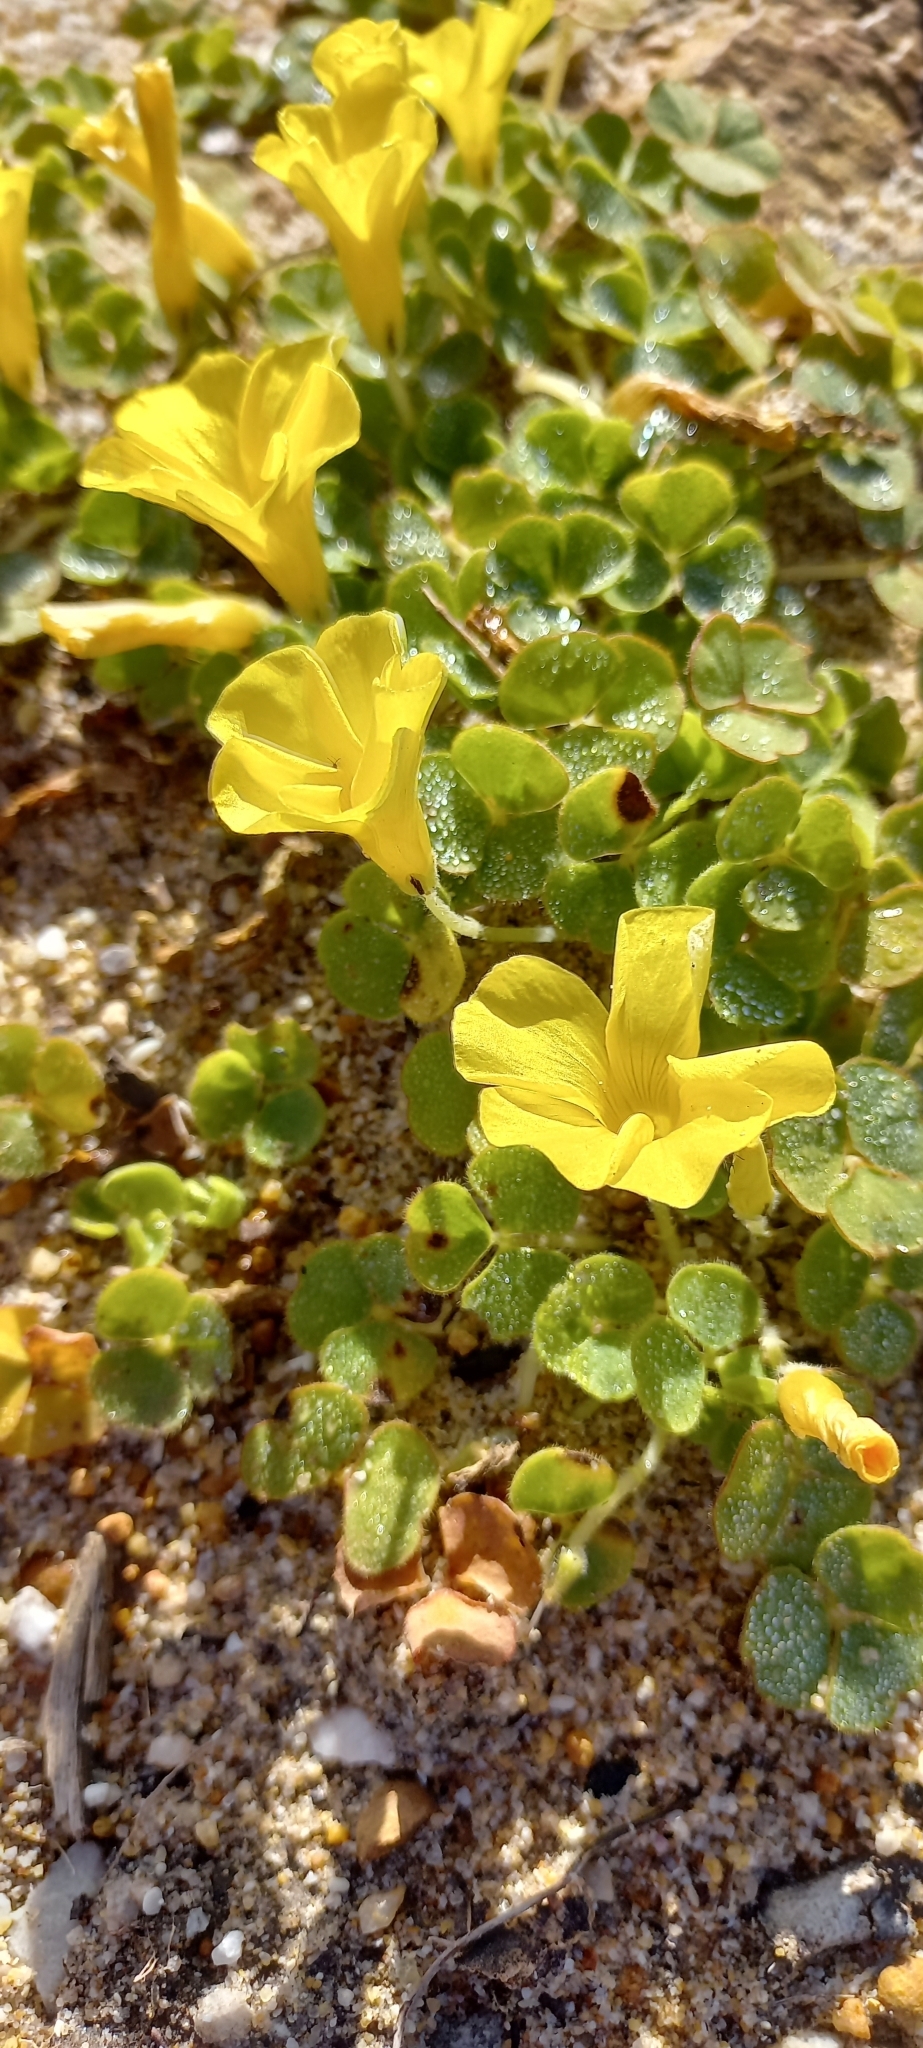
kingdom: Plantae
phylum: Tracheophyta
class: Magnoliopsida
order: Oxalidales
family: Oxalidaceae
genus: Oxalis
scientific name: Oxalis luteola
